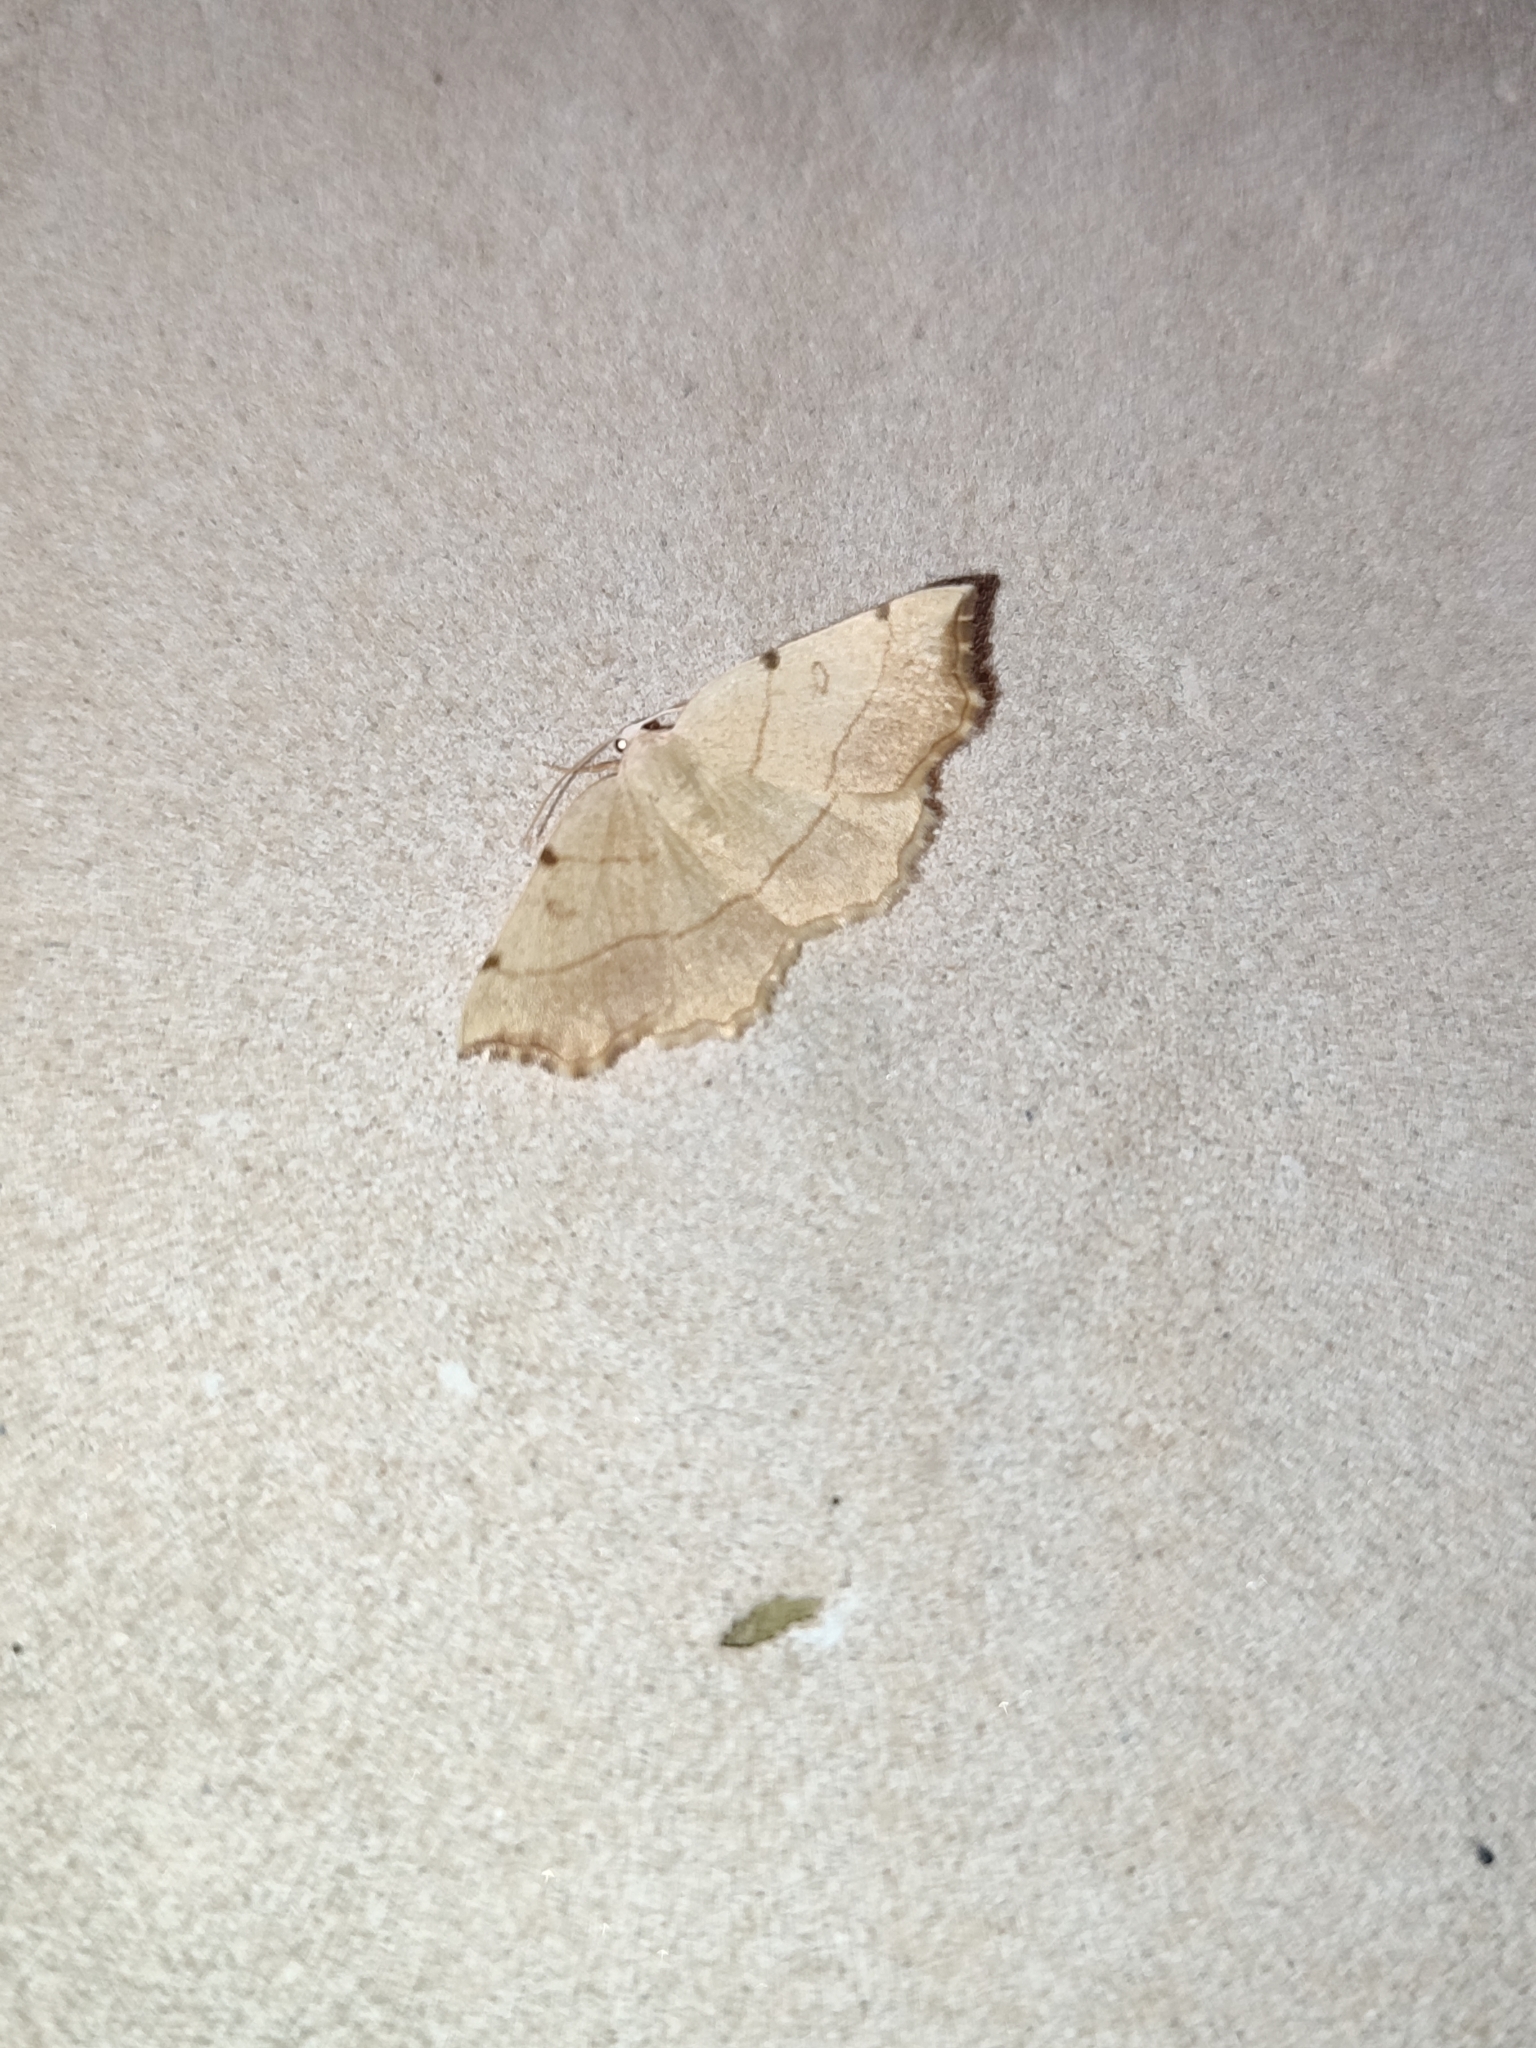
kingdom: Animalia
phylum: Arthropoda
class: Insecta
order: Lepidoptera
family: Geometridae
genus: Eilicrinia
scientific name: Eilicrinia trinotata
